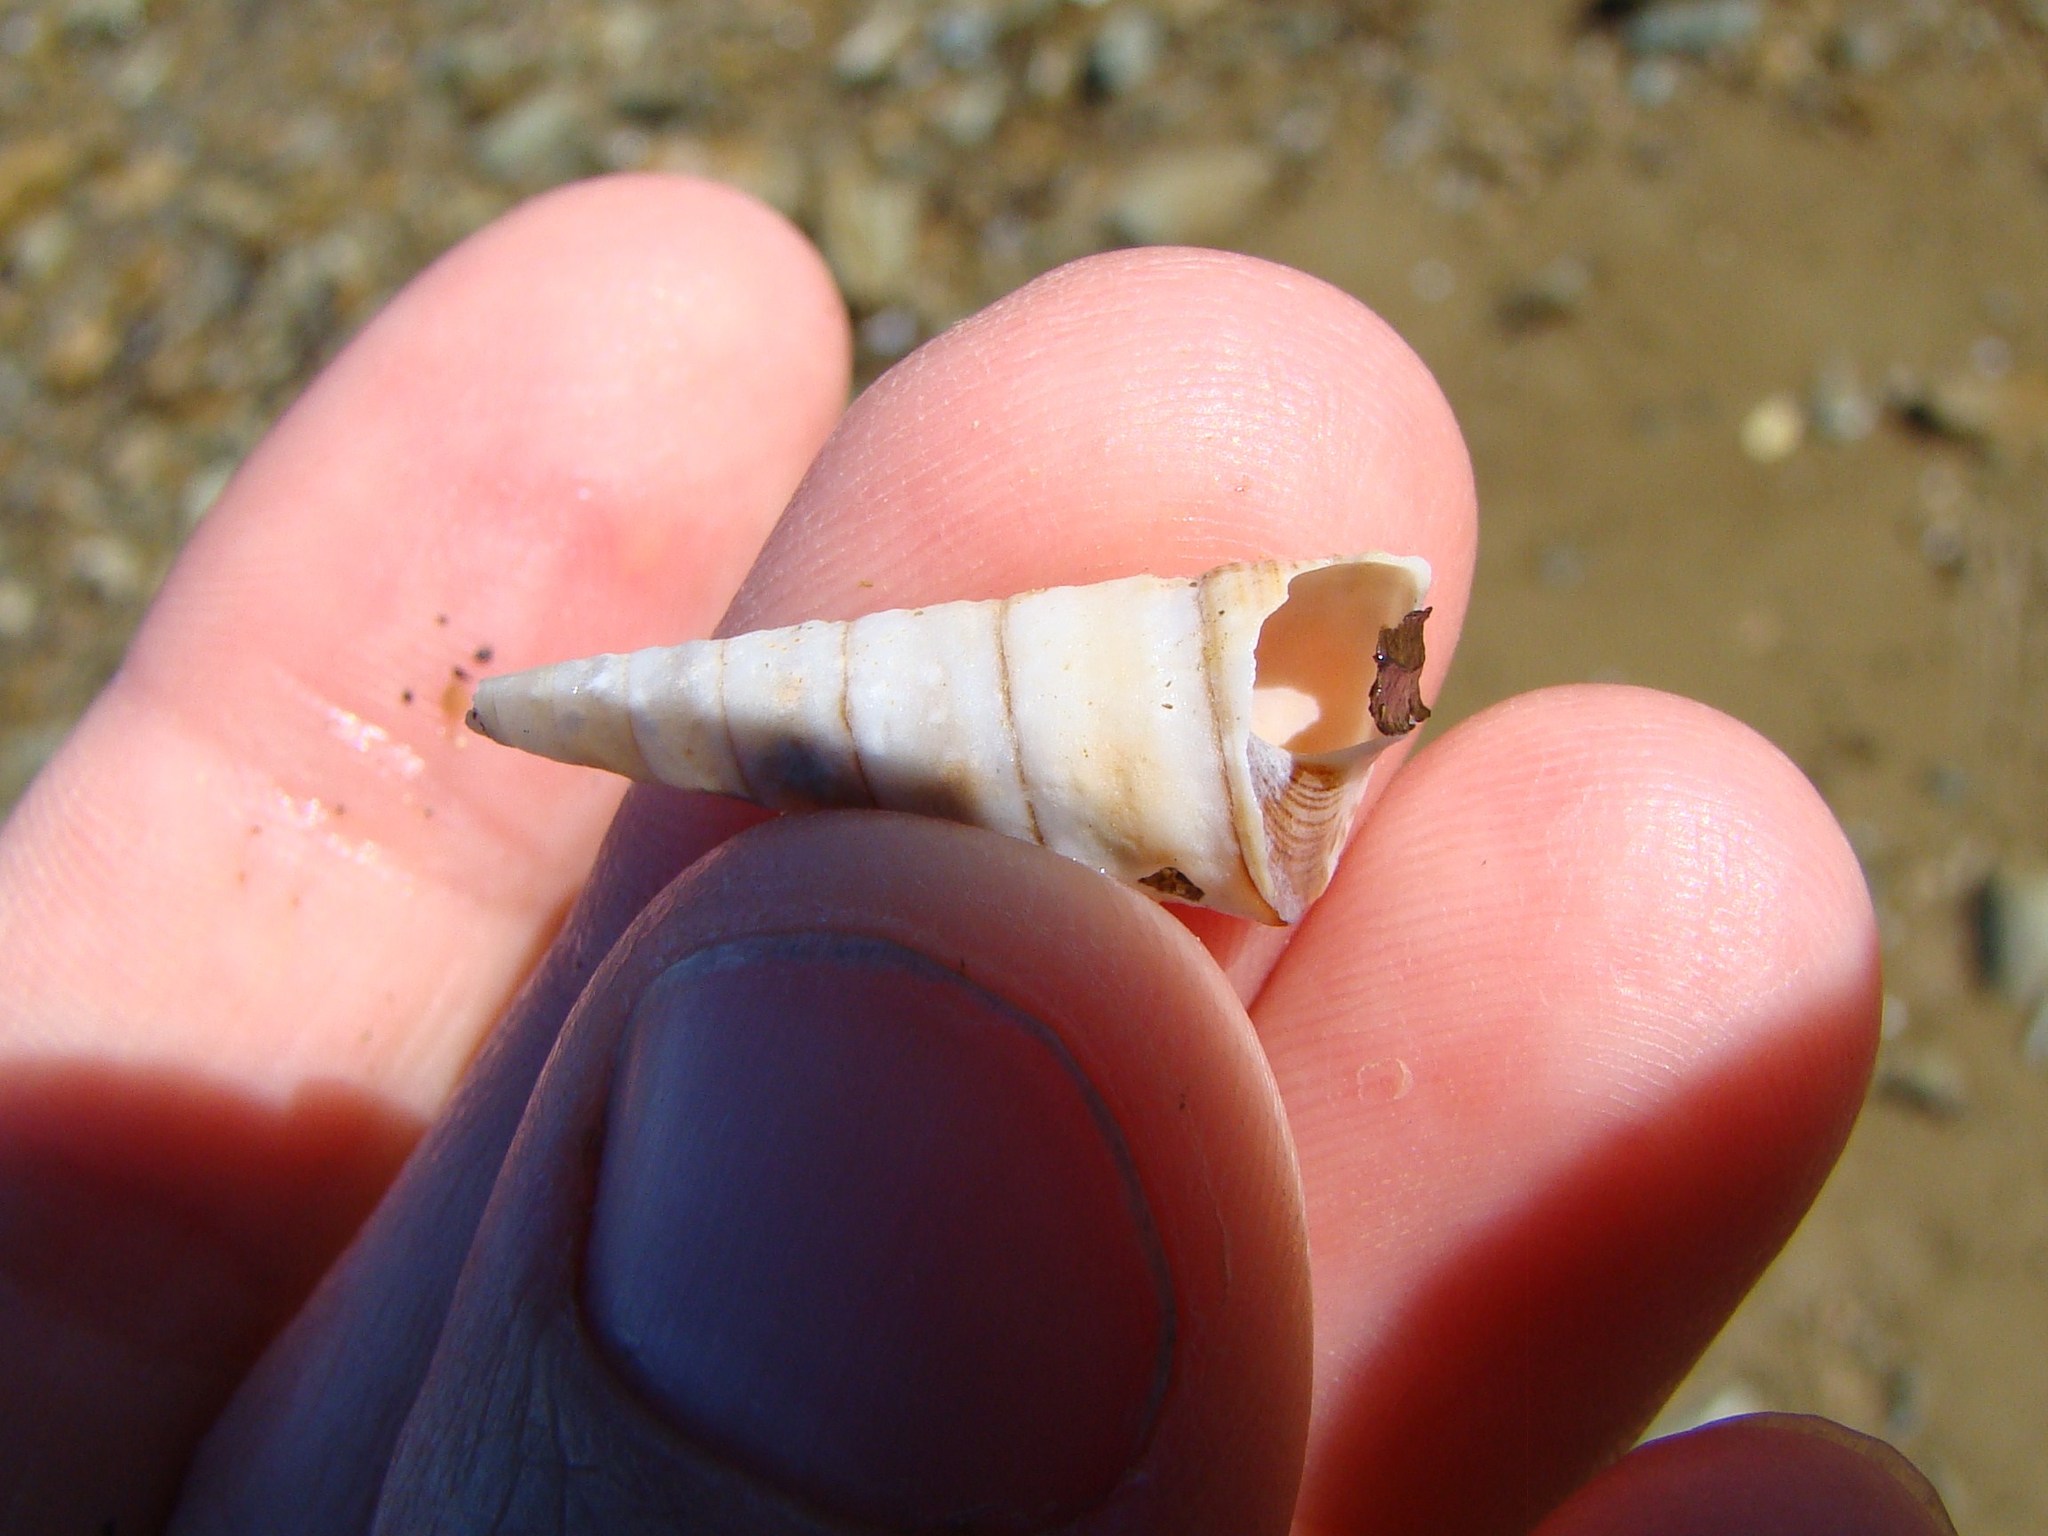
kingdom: Animalia
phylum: Mollusca
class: Gastropoda
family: Turritellidae
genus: Maoricolpus
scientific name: Maoricolpus roseus
